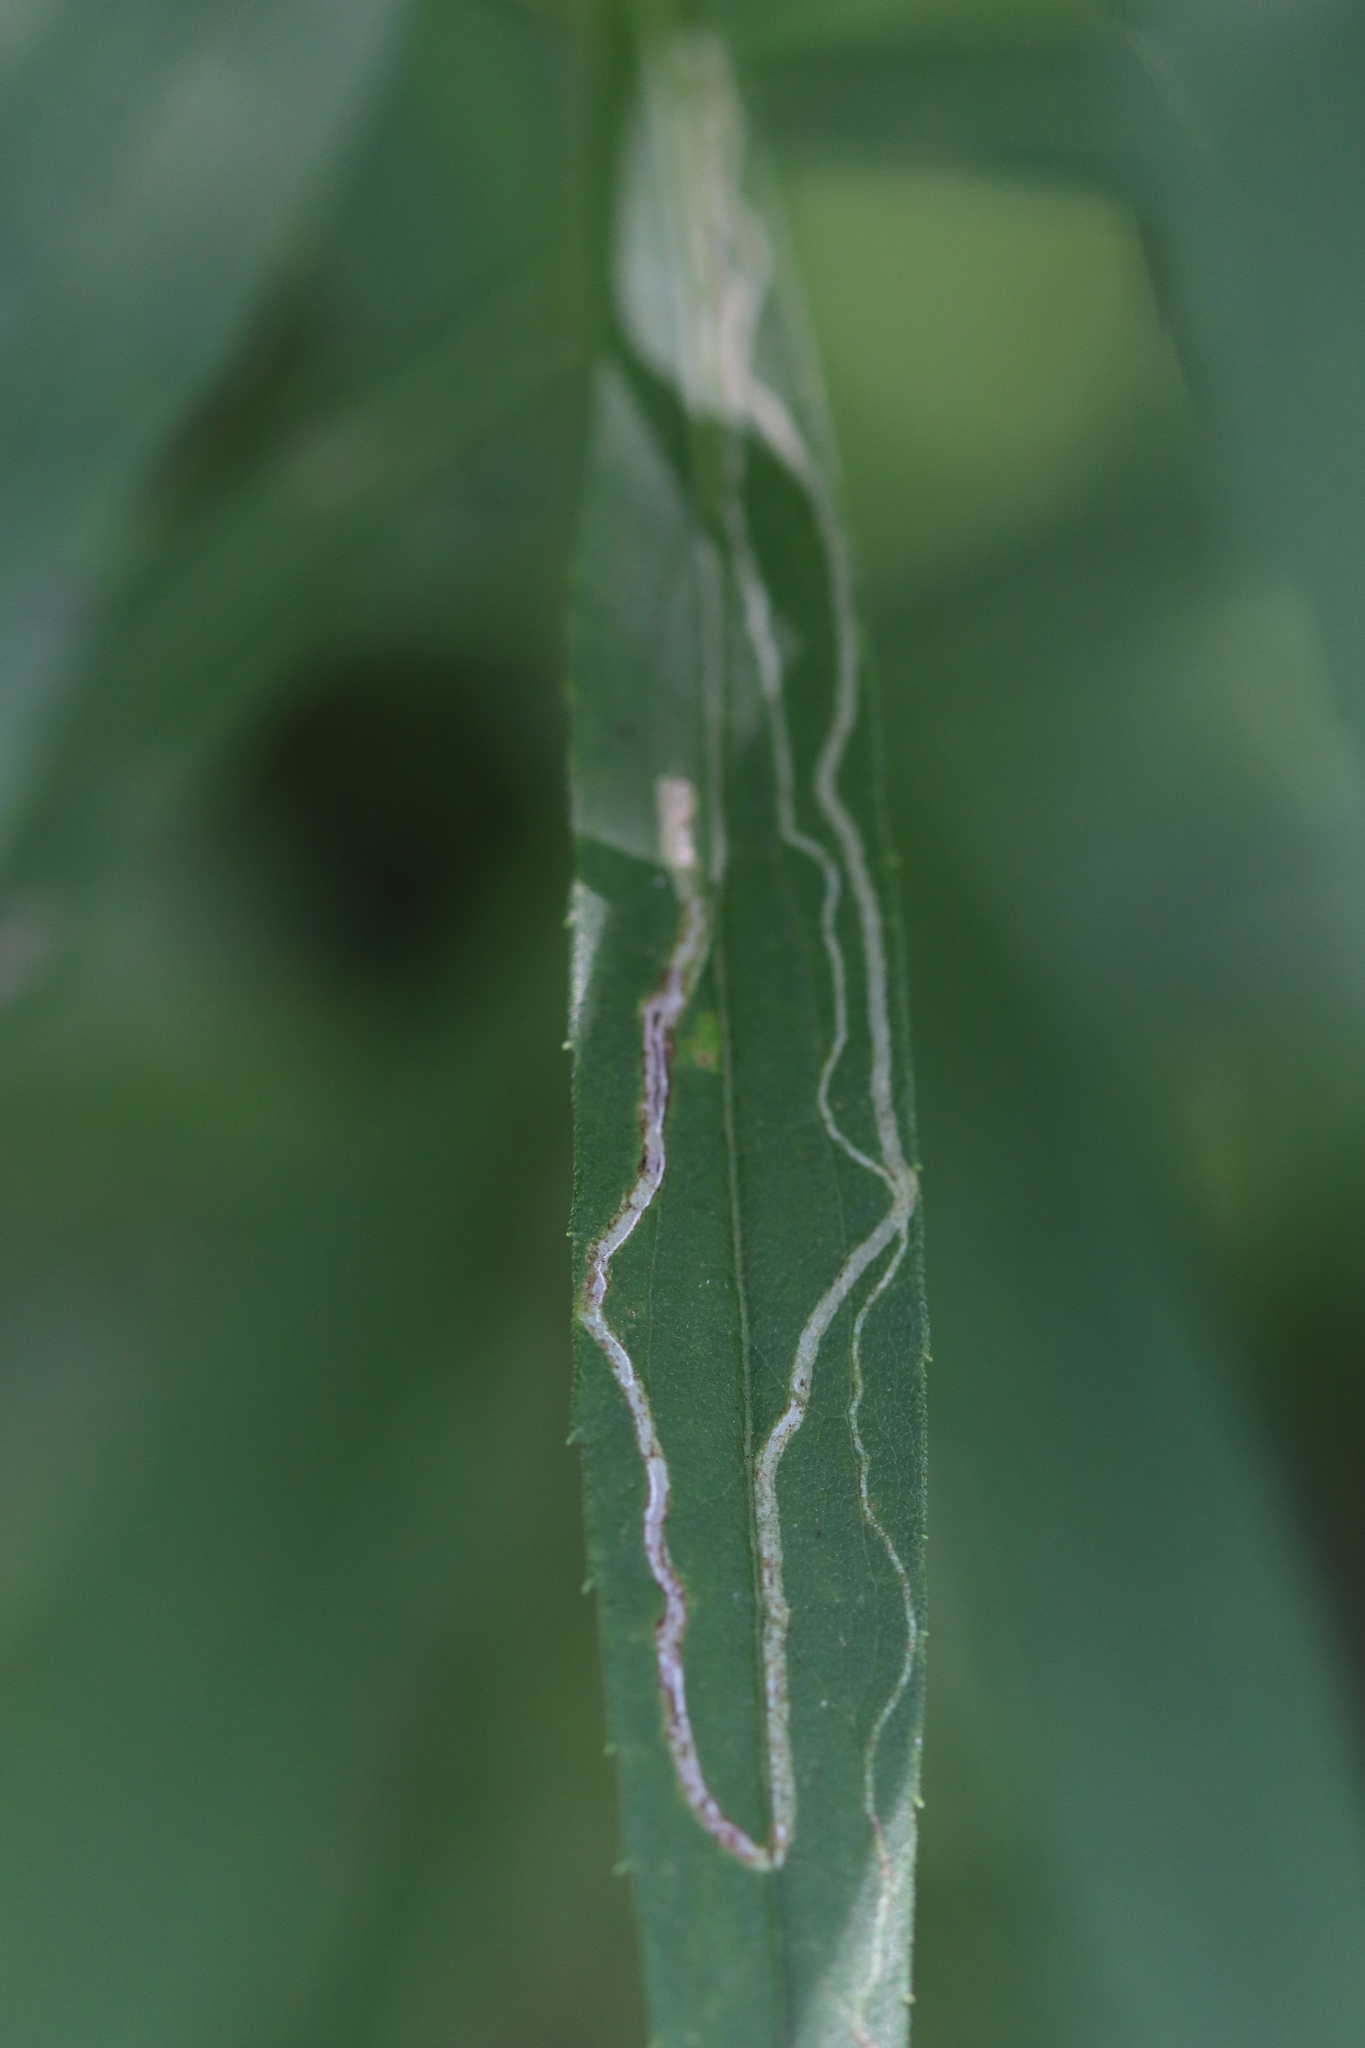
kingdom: Animalia
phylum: Arthropoda
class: Insecta
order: Diptera
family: Agromyzidae
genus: Ophiomyia
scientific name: Ophiomyia maura
